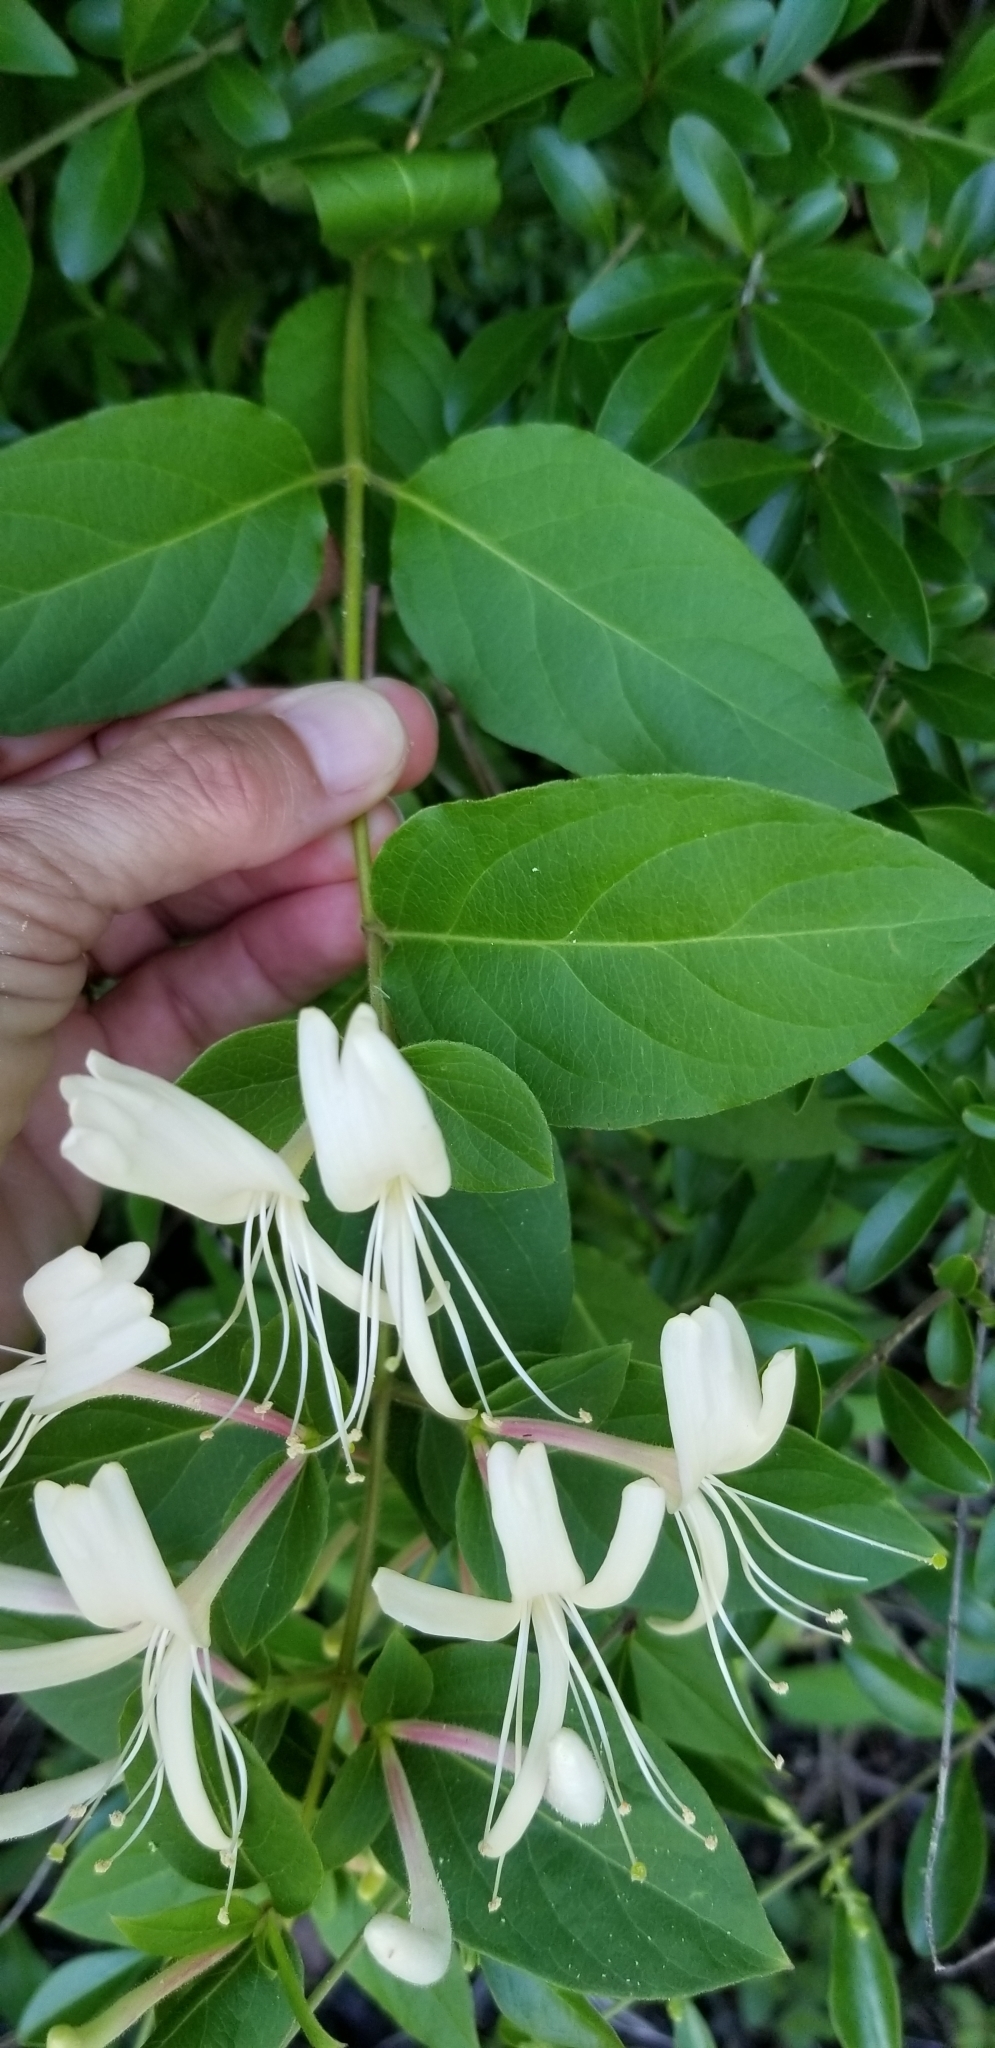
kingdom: Plantae
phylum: Tracheophyta
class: Magnoliopsida
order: Dipsacales
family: Caprifoliaceae
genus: Lonicera
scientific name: Lonicera japonica
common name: Japanese honeysuckle
